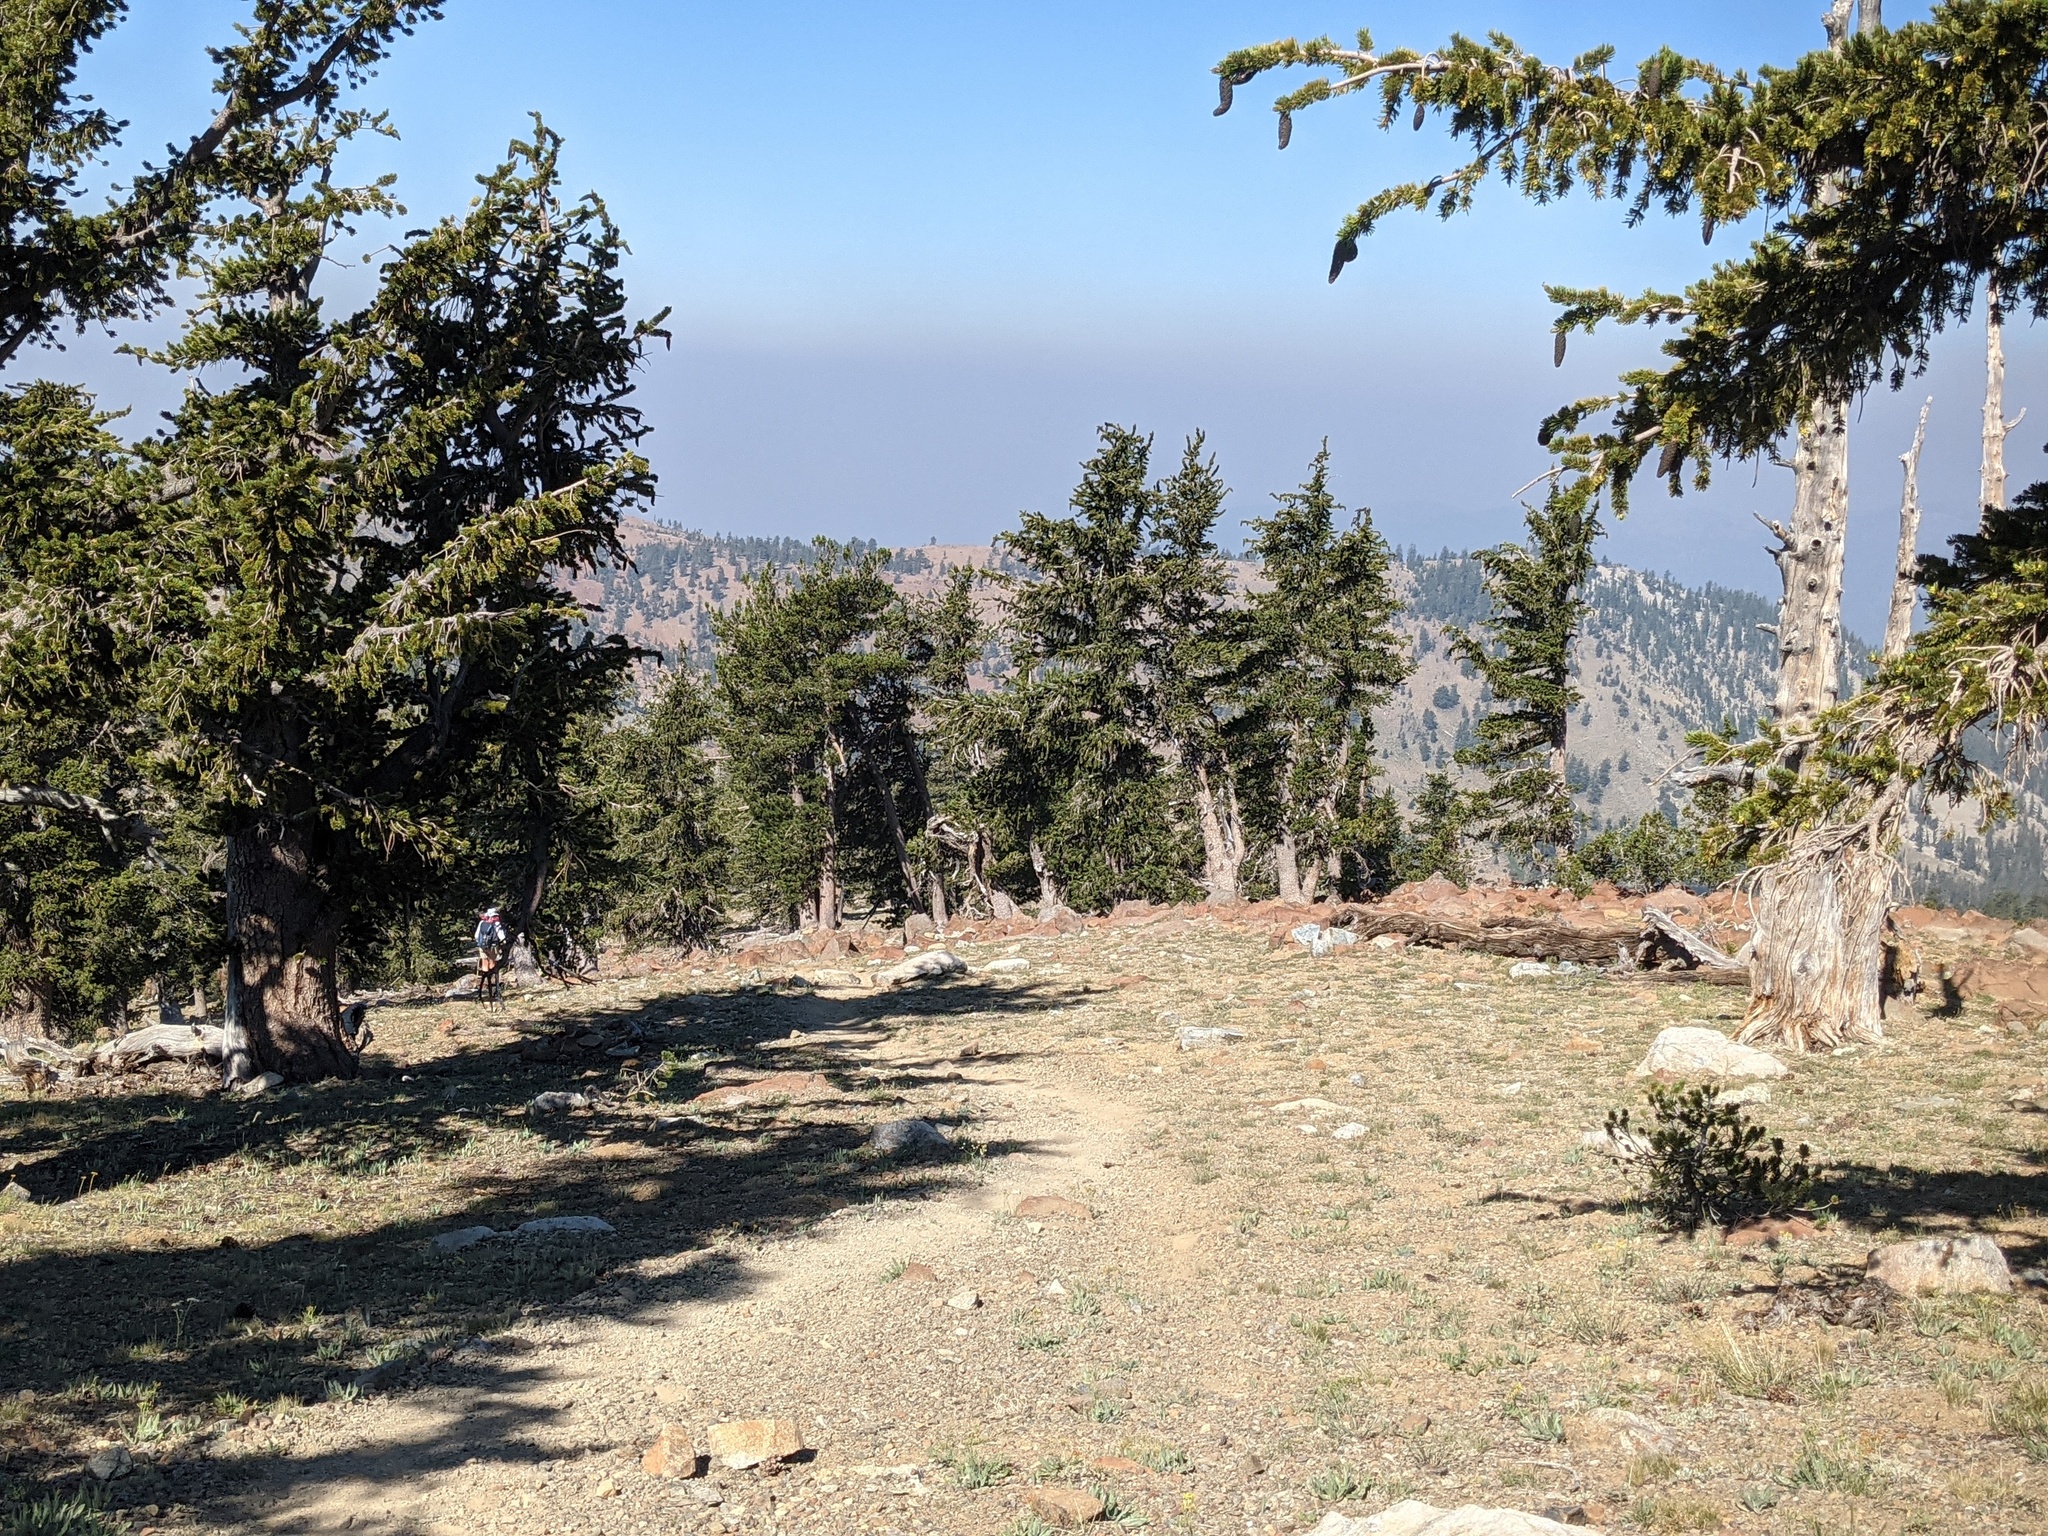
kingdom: Plantae
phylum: Tracheophyta
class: Pinopsida
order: Pinales
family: Pinaceae
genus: Pinus
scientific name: Pinus balfouriana
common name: Foxtail pine
